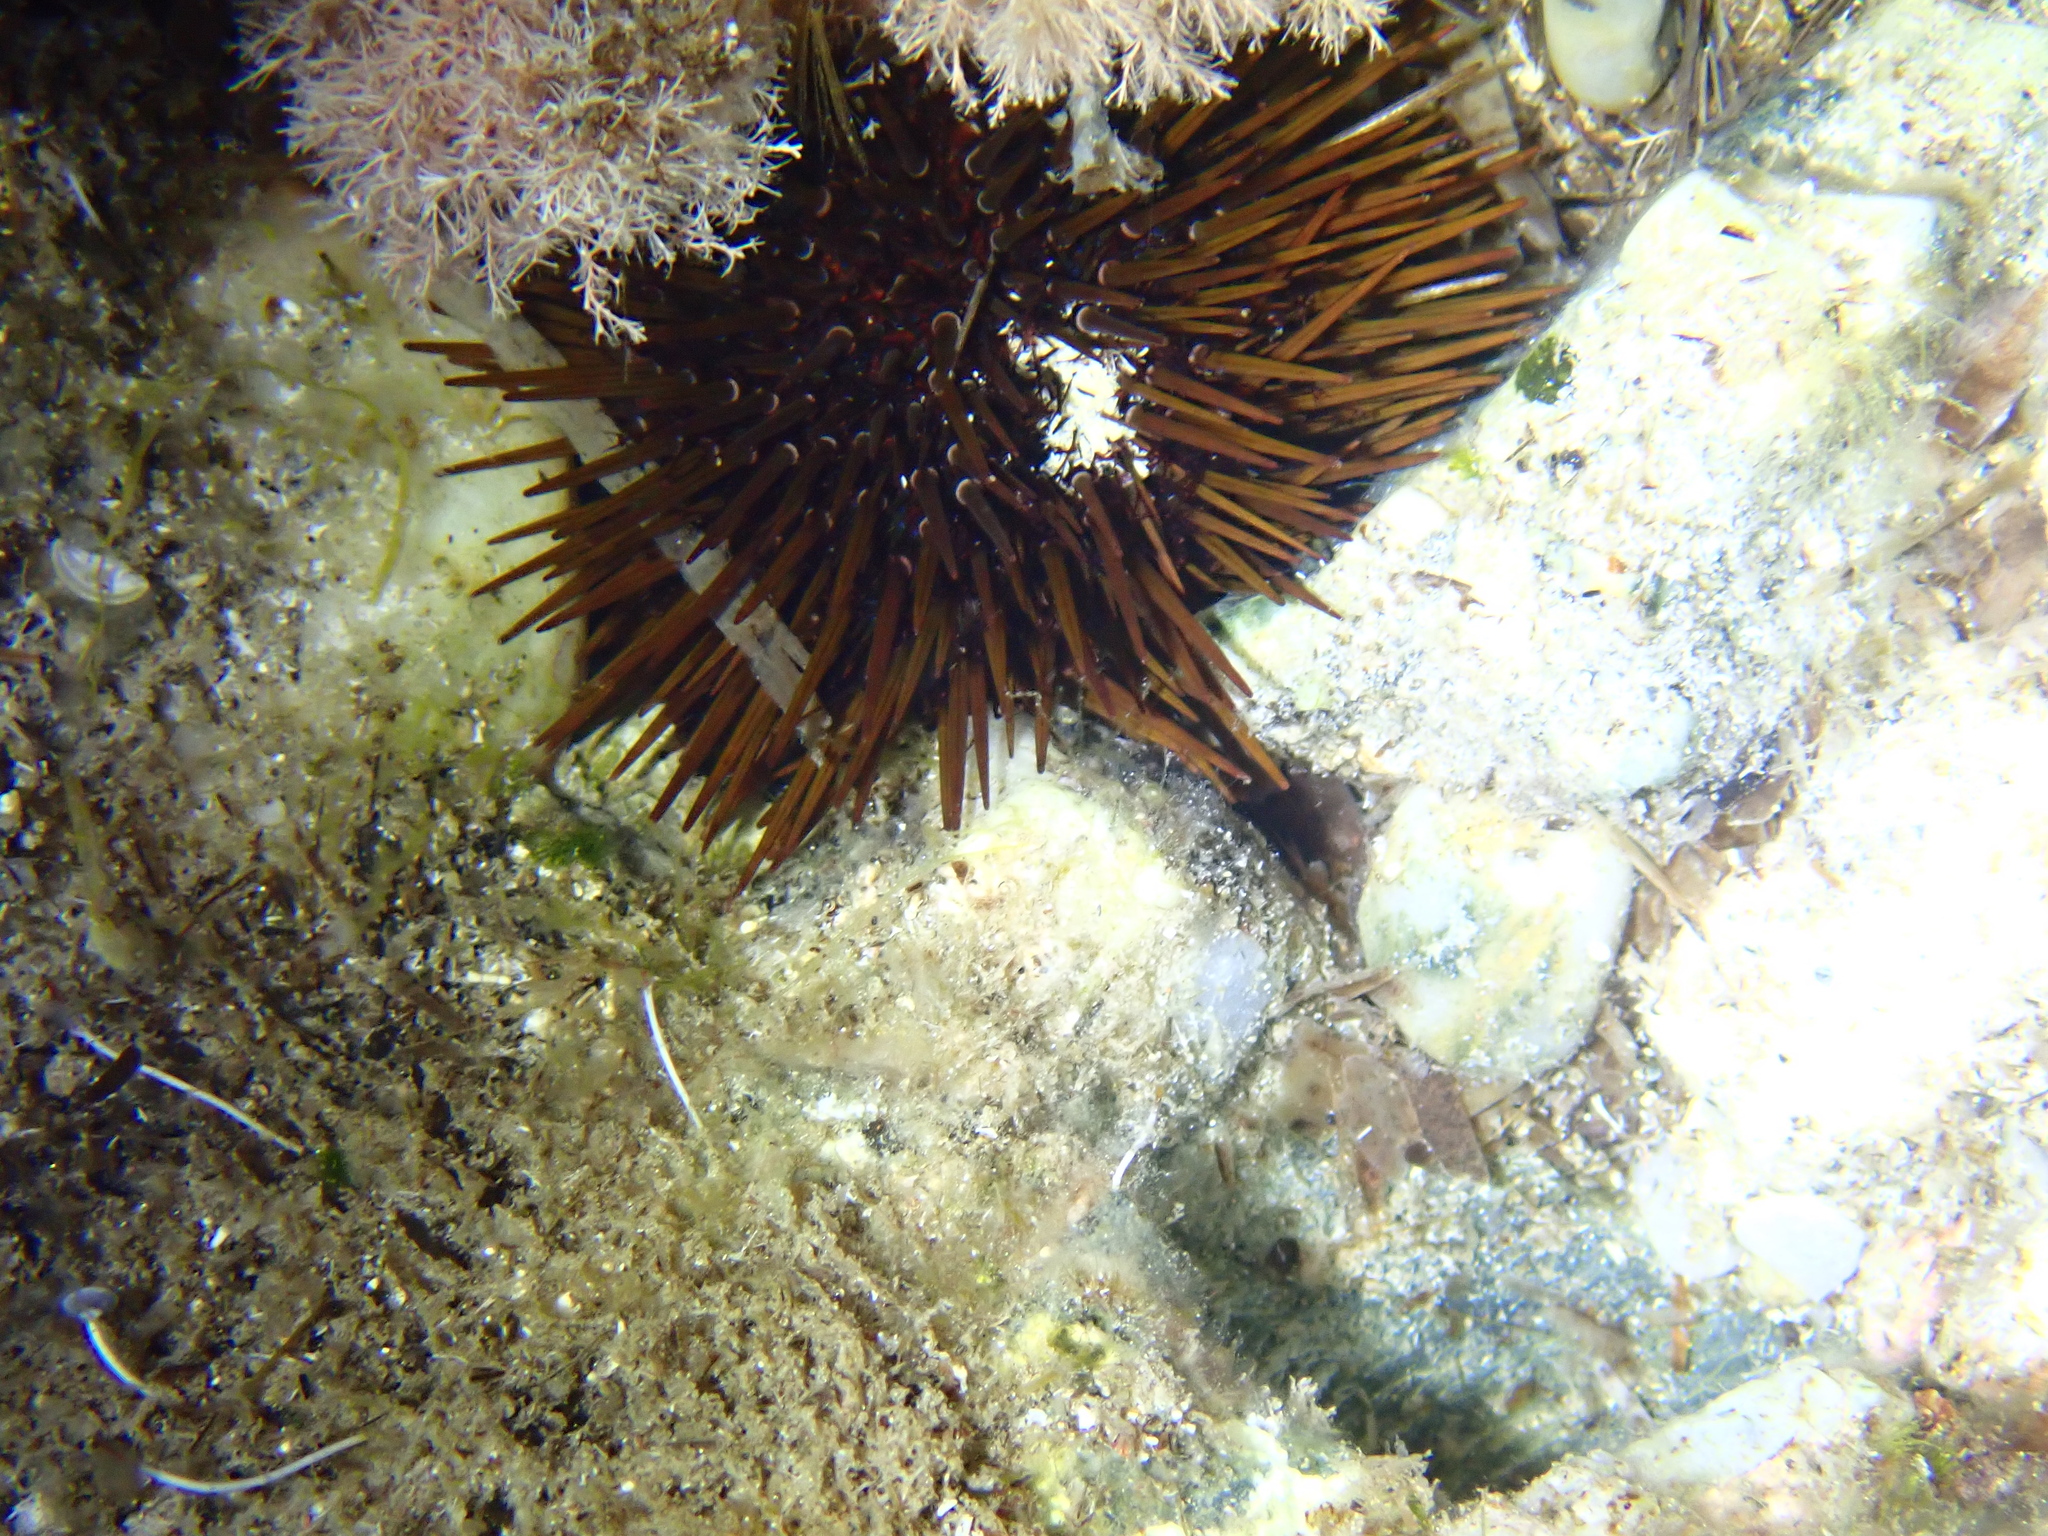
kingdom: Animalia
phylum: Echinodermata
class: Echinoidea
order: Camarodonta
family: Parechinidae
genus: Paracentrotus
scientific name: Paracentrotus lividus
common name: Purple sea urchin
